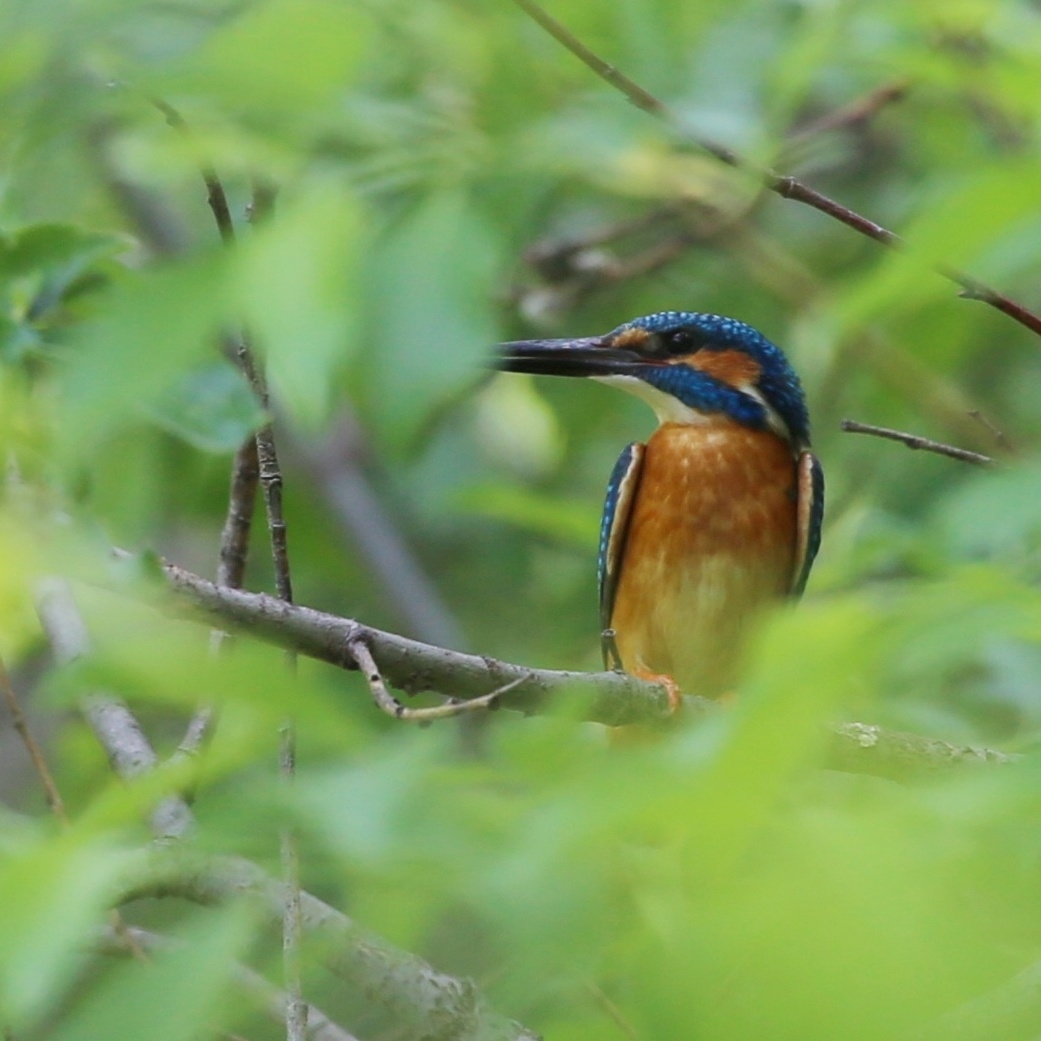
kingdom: Animalia
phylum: Chordata
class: Aves
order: Coraciiformes
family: Alcedinidae
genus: Alcedo
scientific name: Alcedo atthis
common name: Common kingfisher
